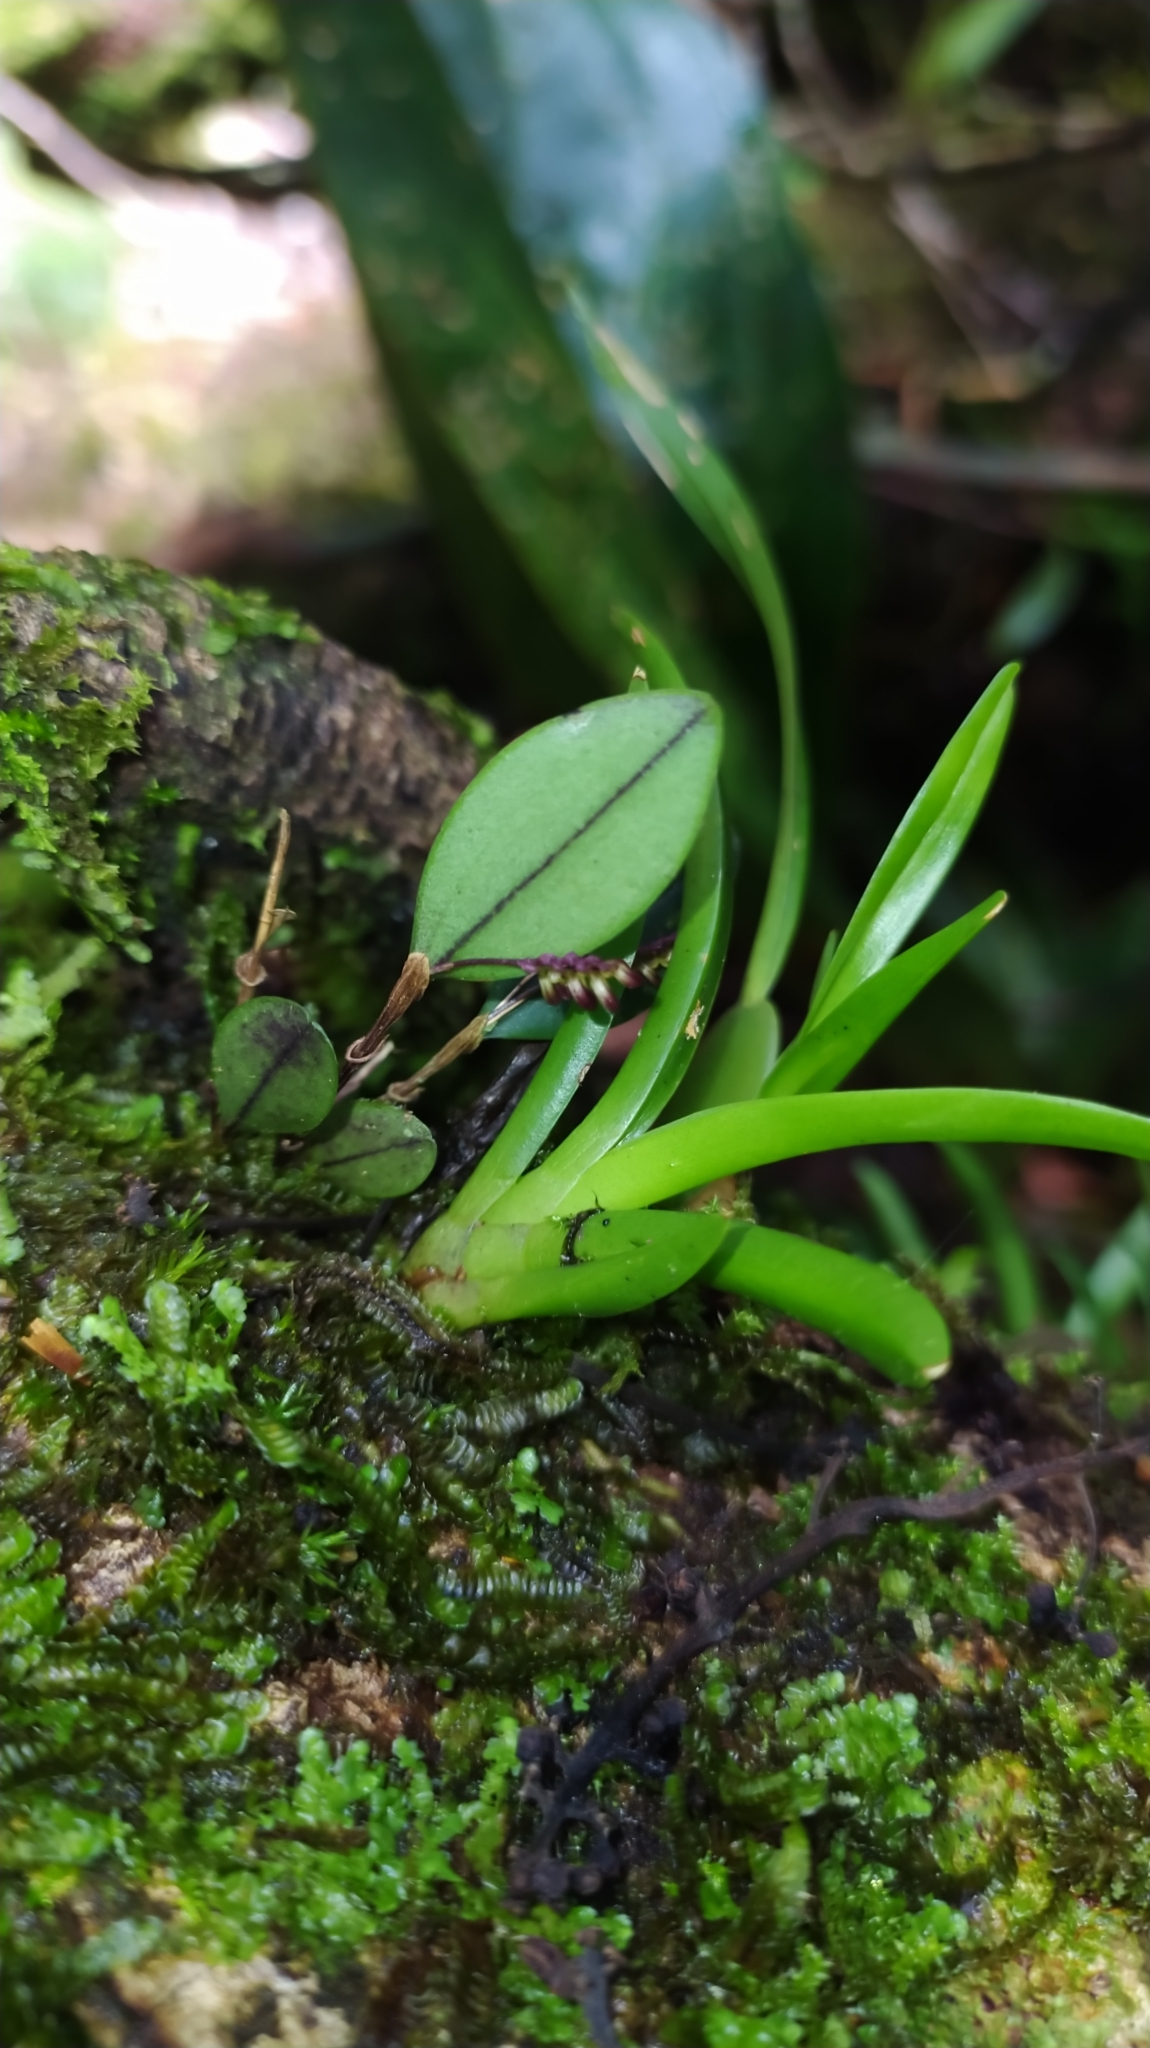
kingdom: Plantae
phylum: Tracheophyta
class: Liliopsida
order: Asparagales
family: Orchidaceae
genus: Trichosalpinx
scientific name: Trichosalpinx egleri
